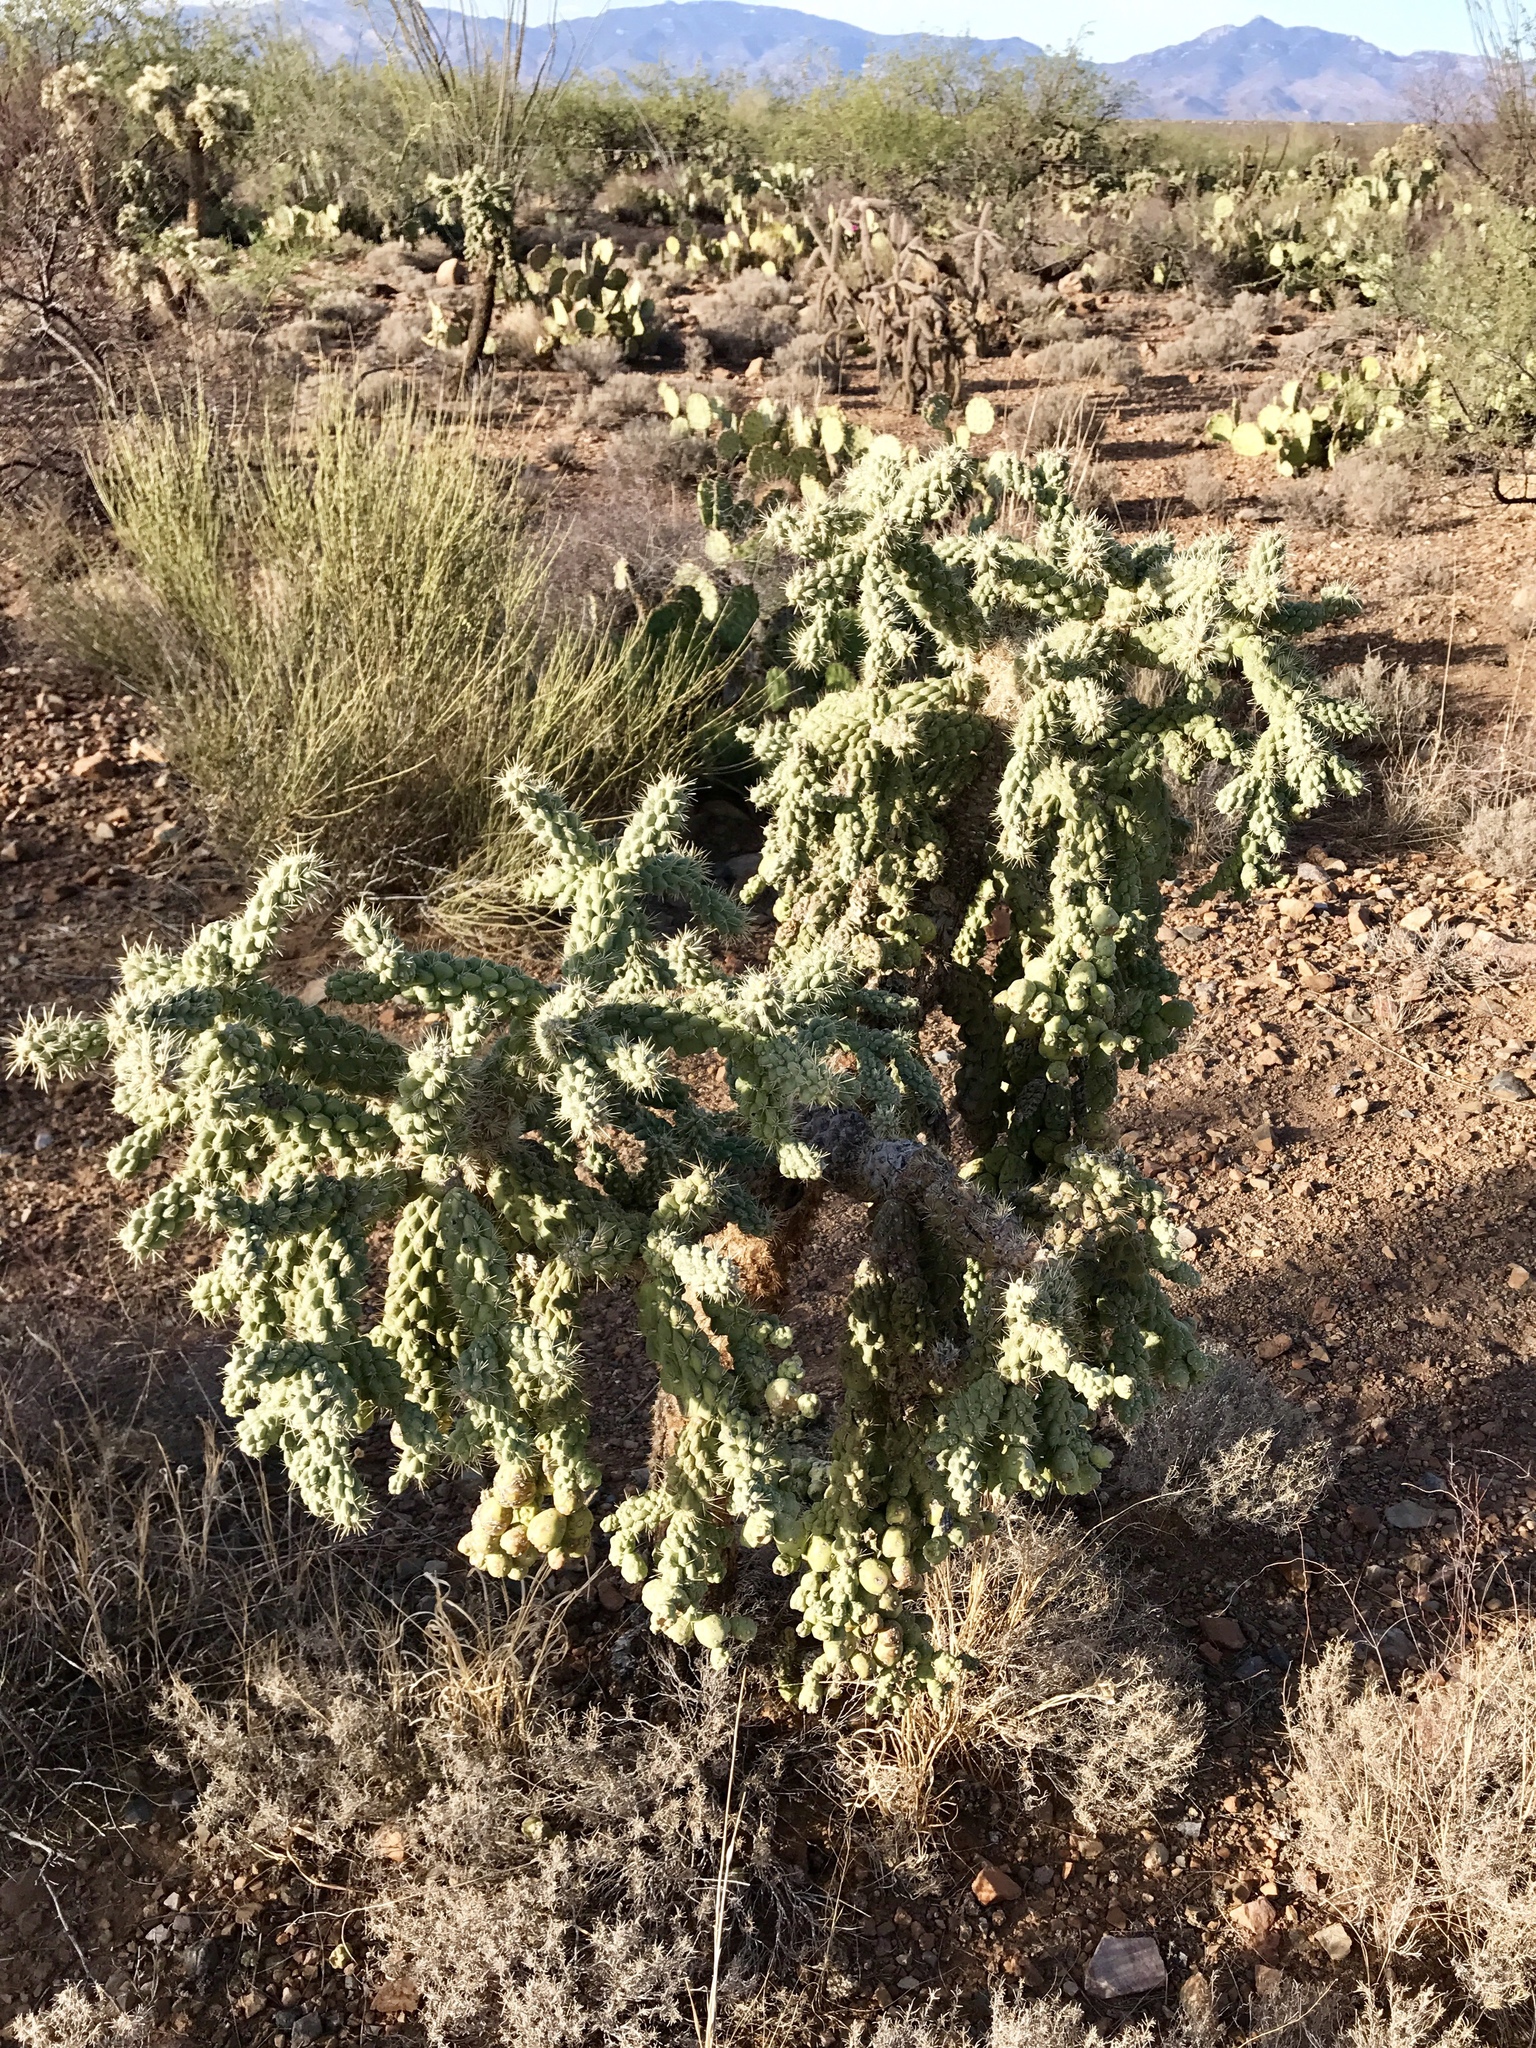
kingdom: Plantae
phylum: Tracheophyta
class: Magnoliopsida
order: Caryophyllales
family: Cactaceae
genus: Cylindropuntia
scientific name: Cylindropuntia fulgida
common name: Jumping cholla
